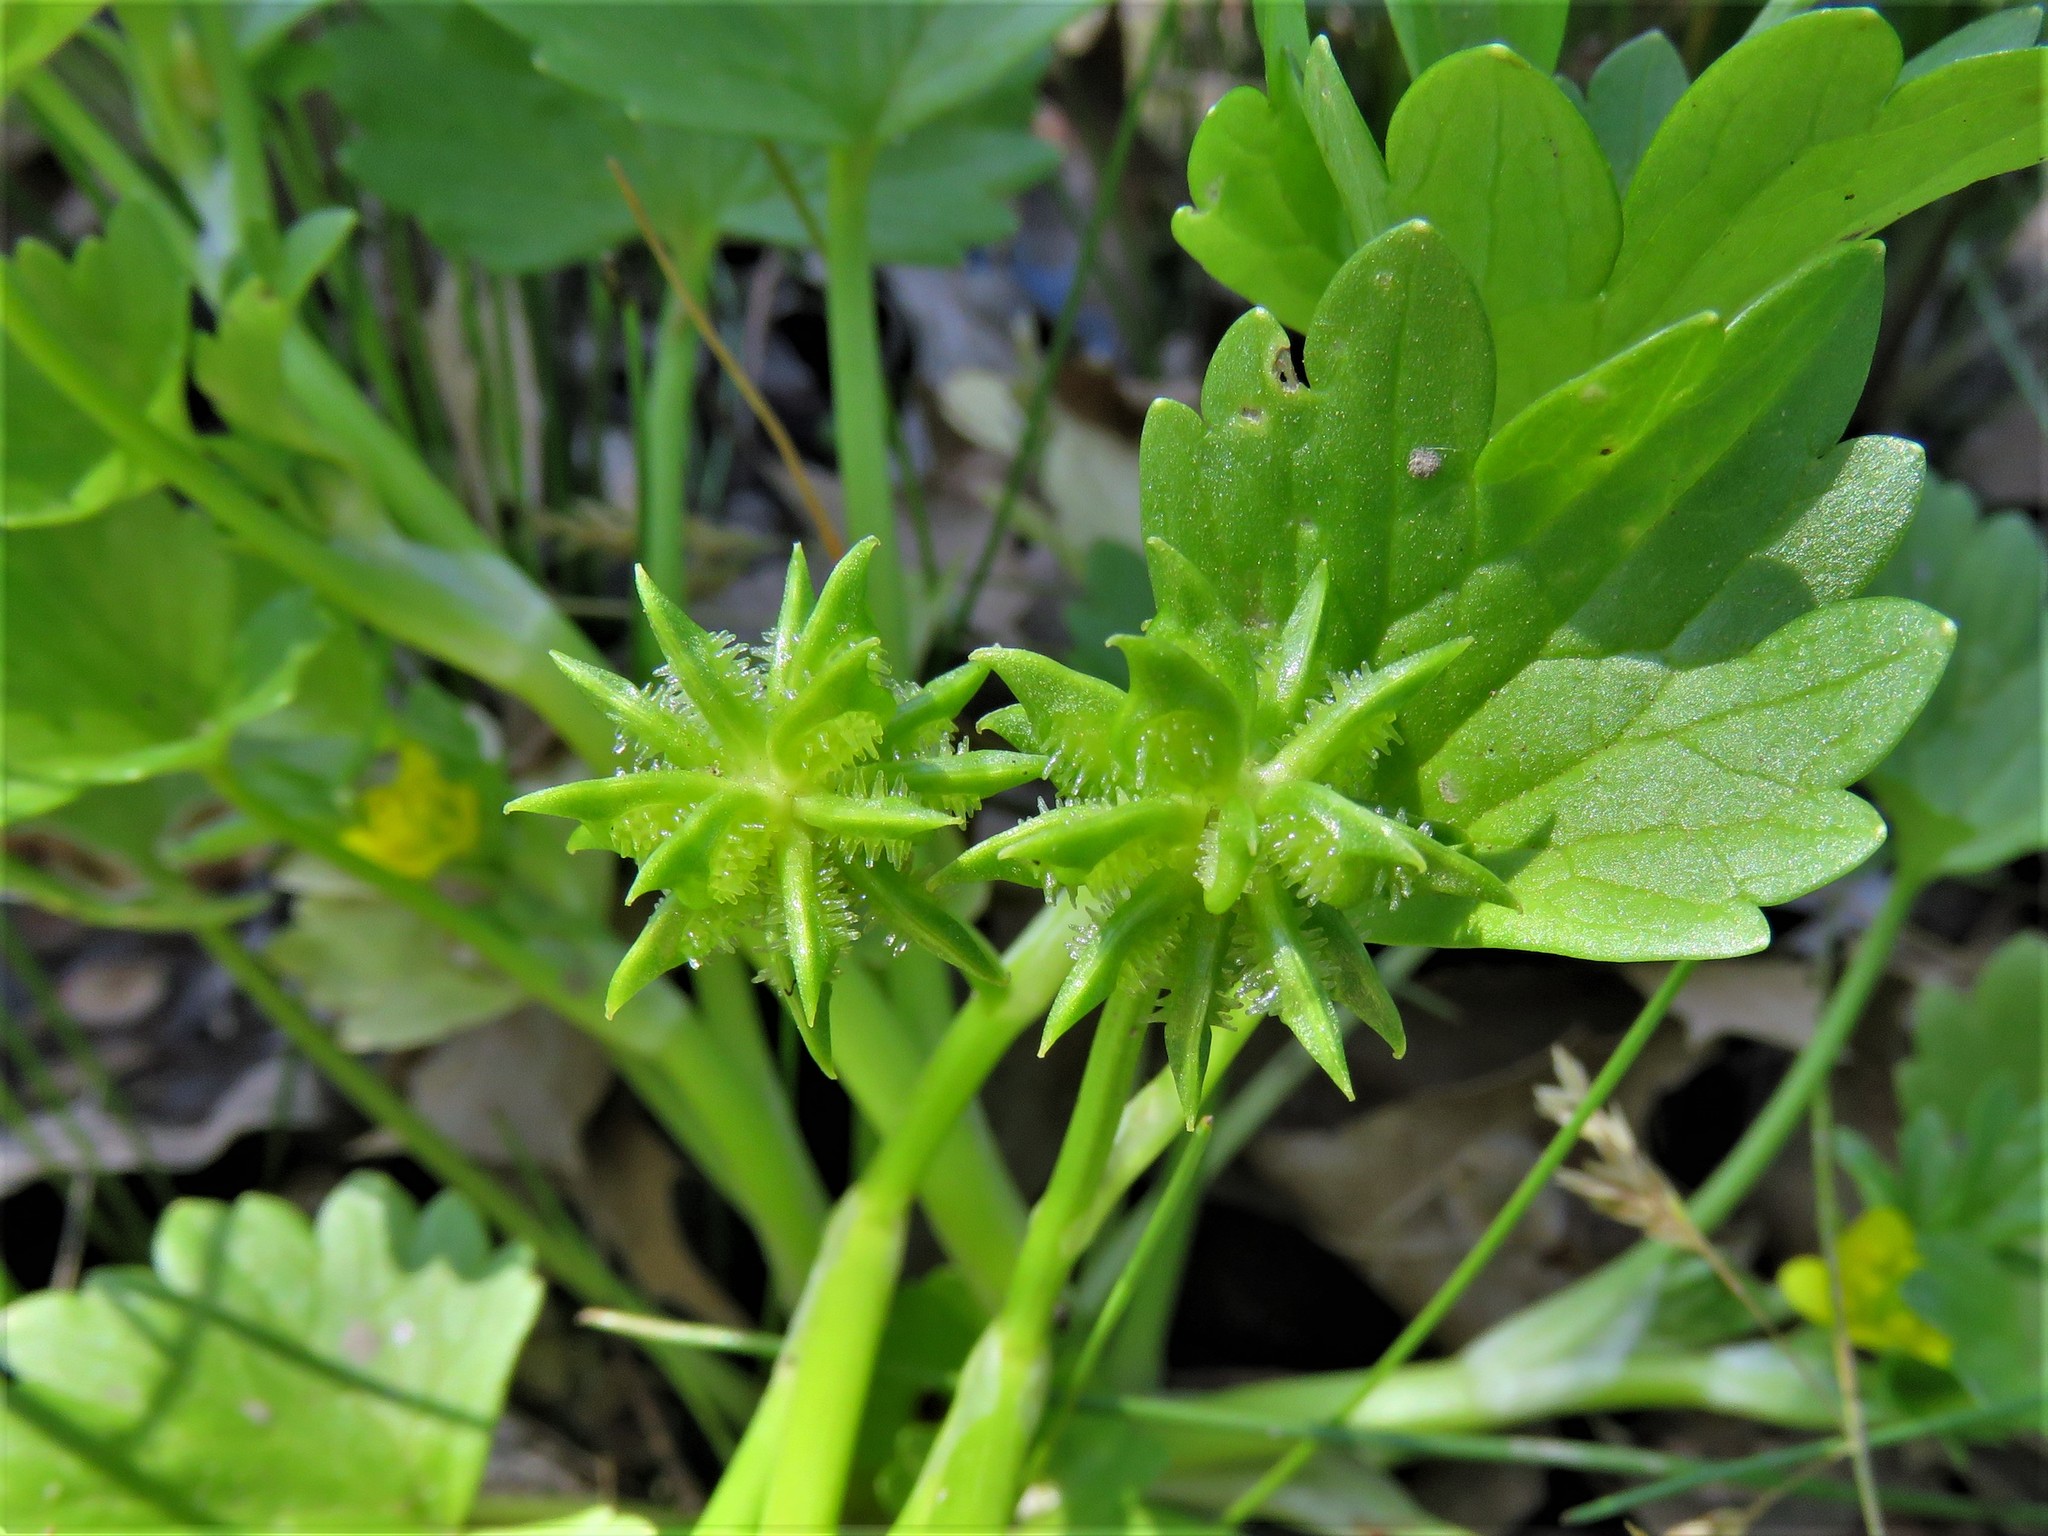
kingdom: Plantae
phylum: Tracheophyta
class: Magnoliopsida
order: Ranunculales
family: Ranunculaceae
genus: Ranunculus
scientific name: Ranunculus muricatus
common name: Rough-fruited buttercup
